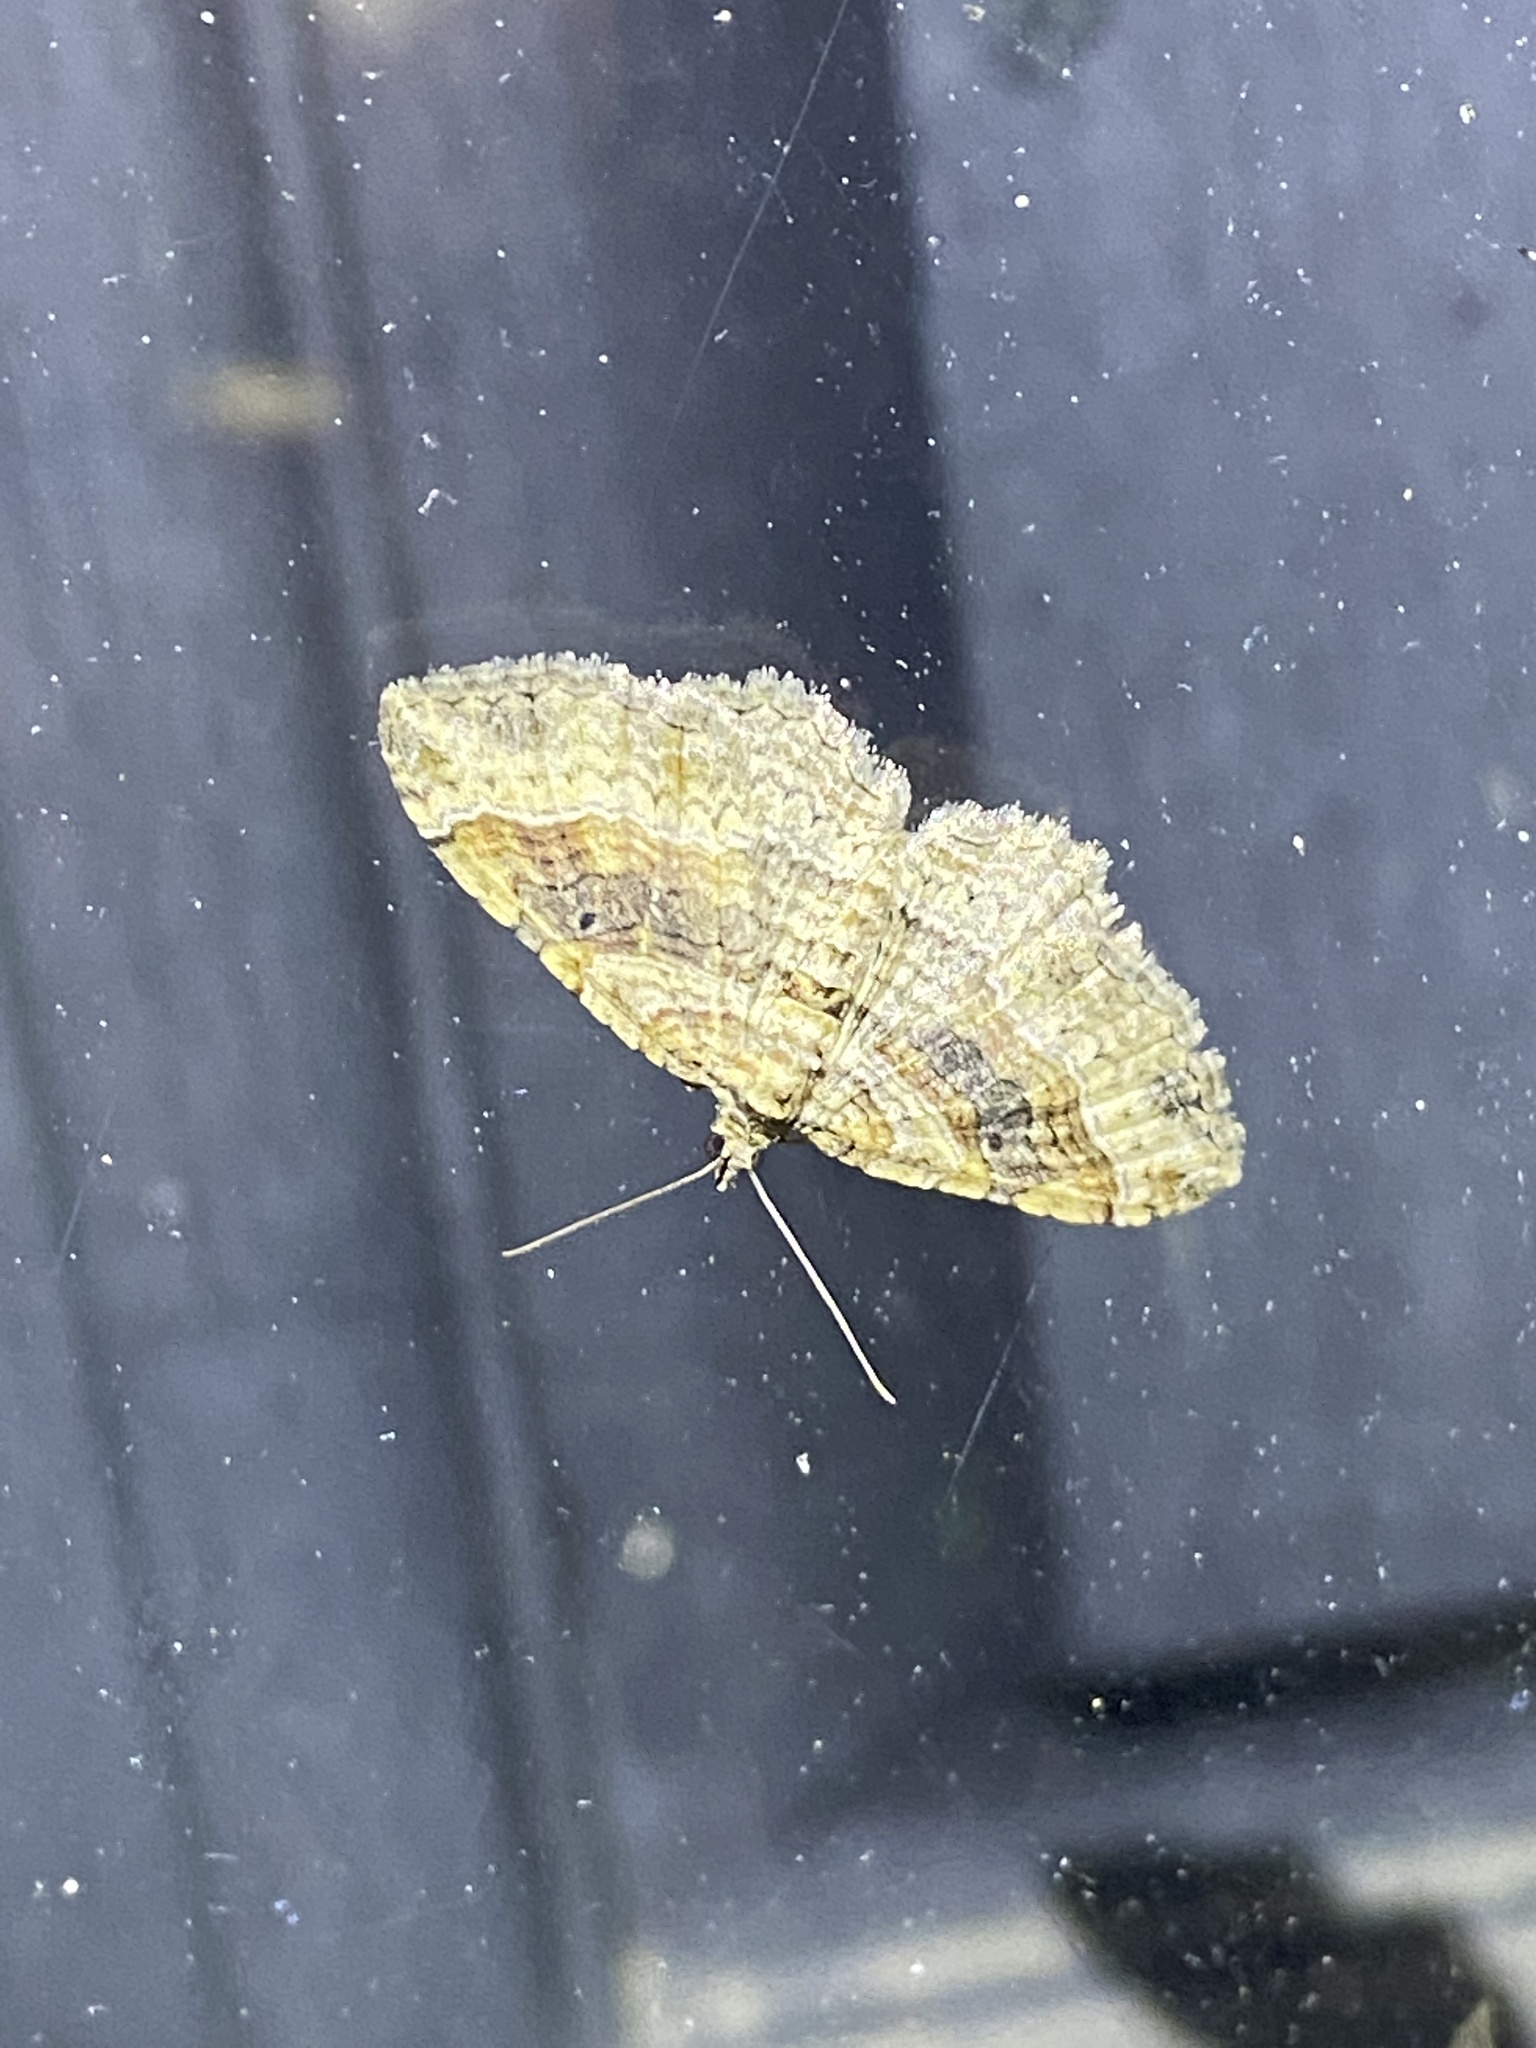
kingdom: Animalia
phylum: Arthropoda
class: Insecta
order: Lepidoptera
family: Geometridae
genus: Costaconvexa
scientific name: Costaconvexa centrostrigaria
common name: Bent-line carpet
